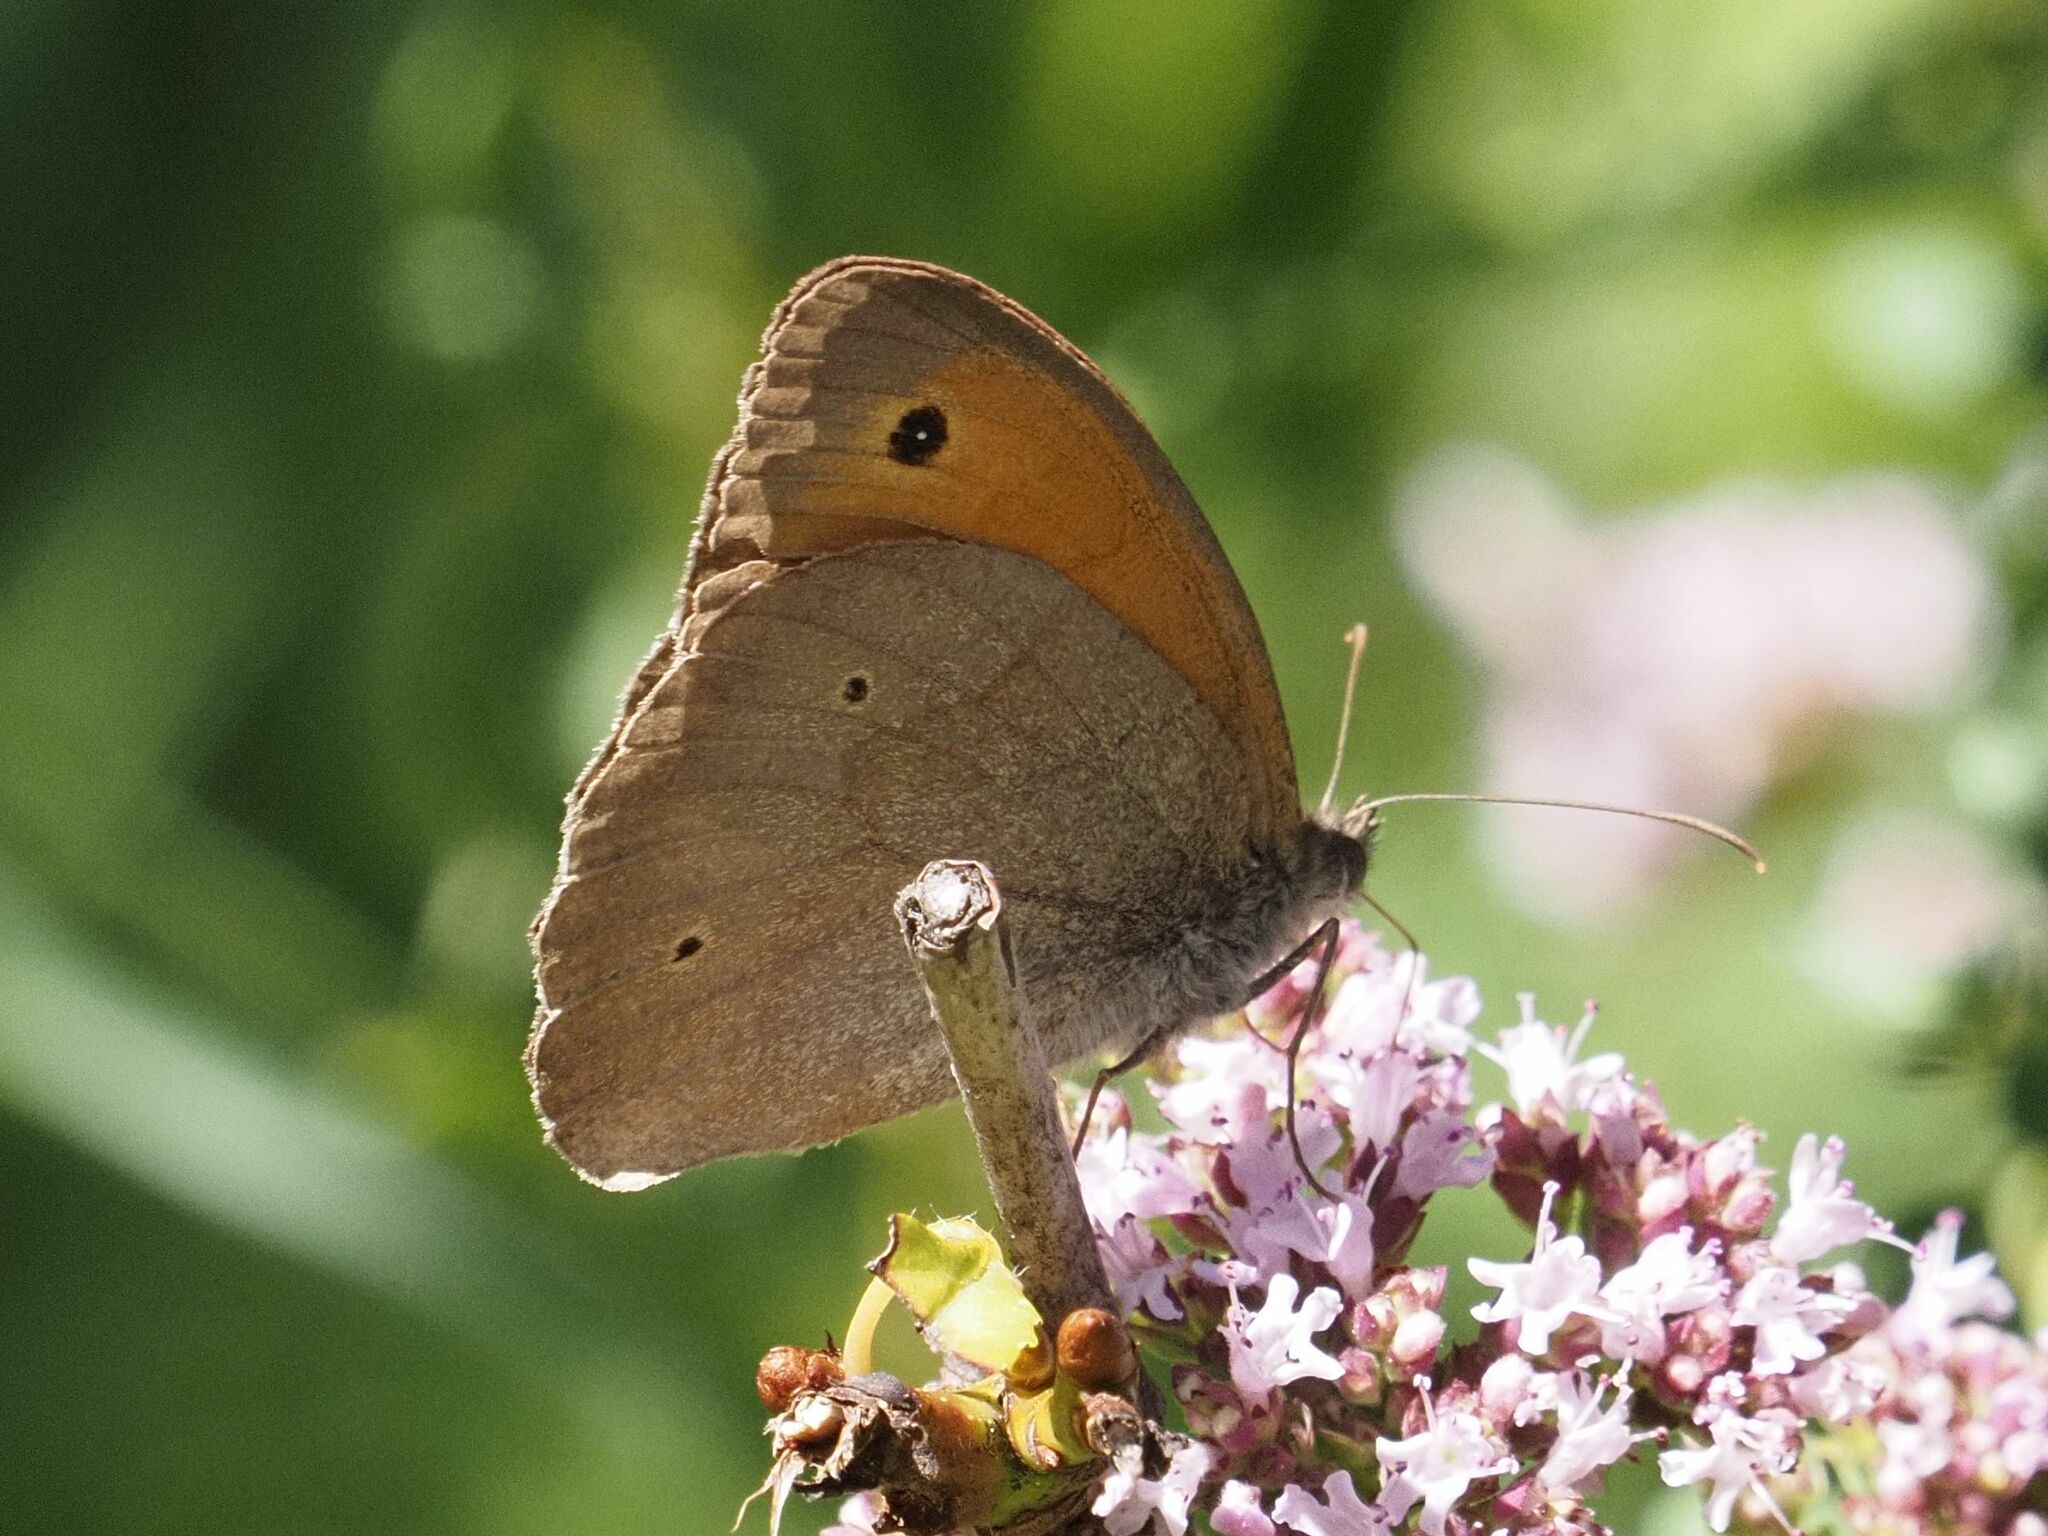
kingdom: Animalia
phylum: Arthropoda
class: Insecta
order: Lepidoptera
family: Nymphalidae
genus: Maniola
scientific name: Maniola jurtina
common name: Meadow brown
